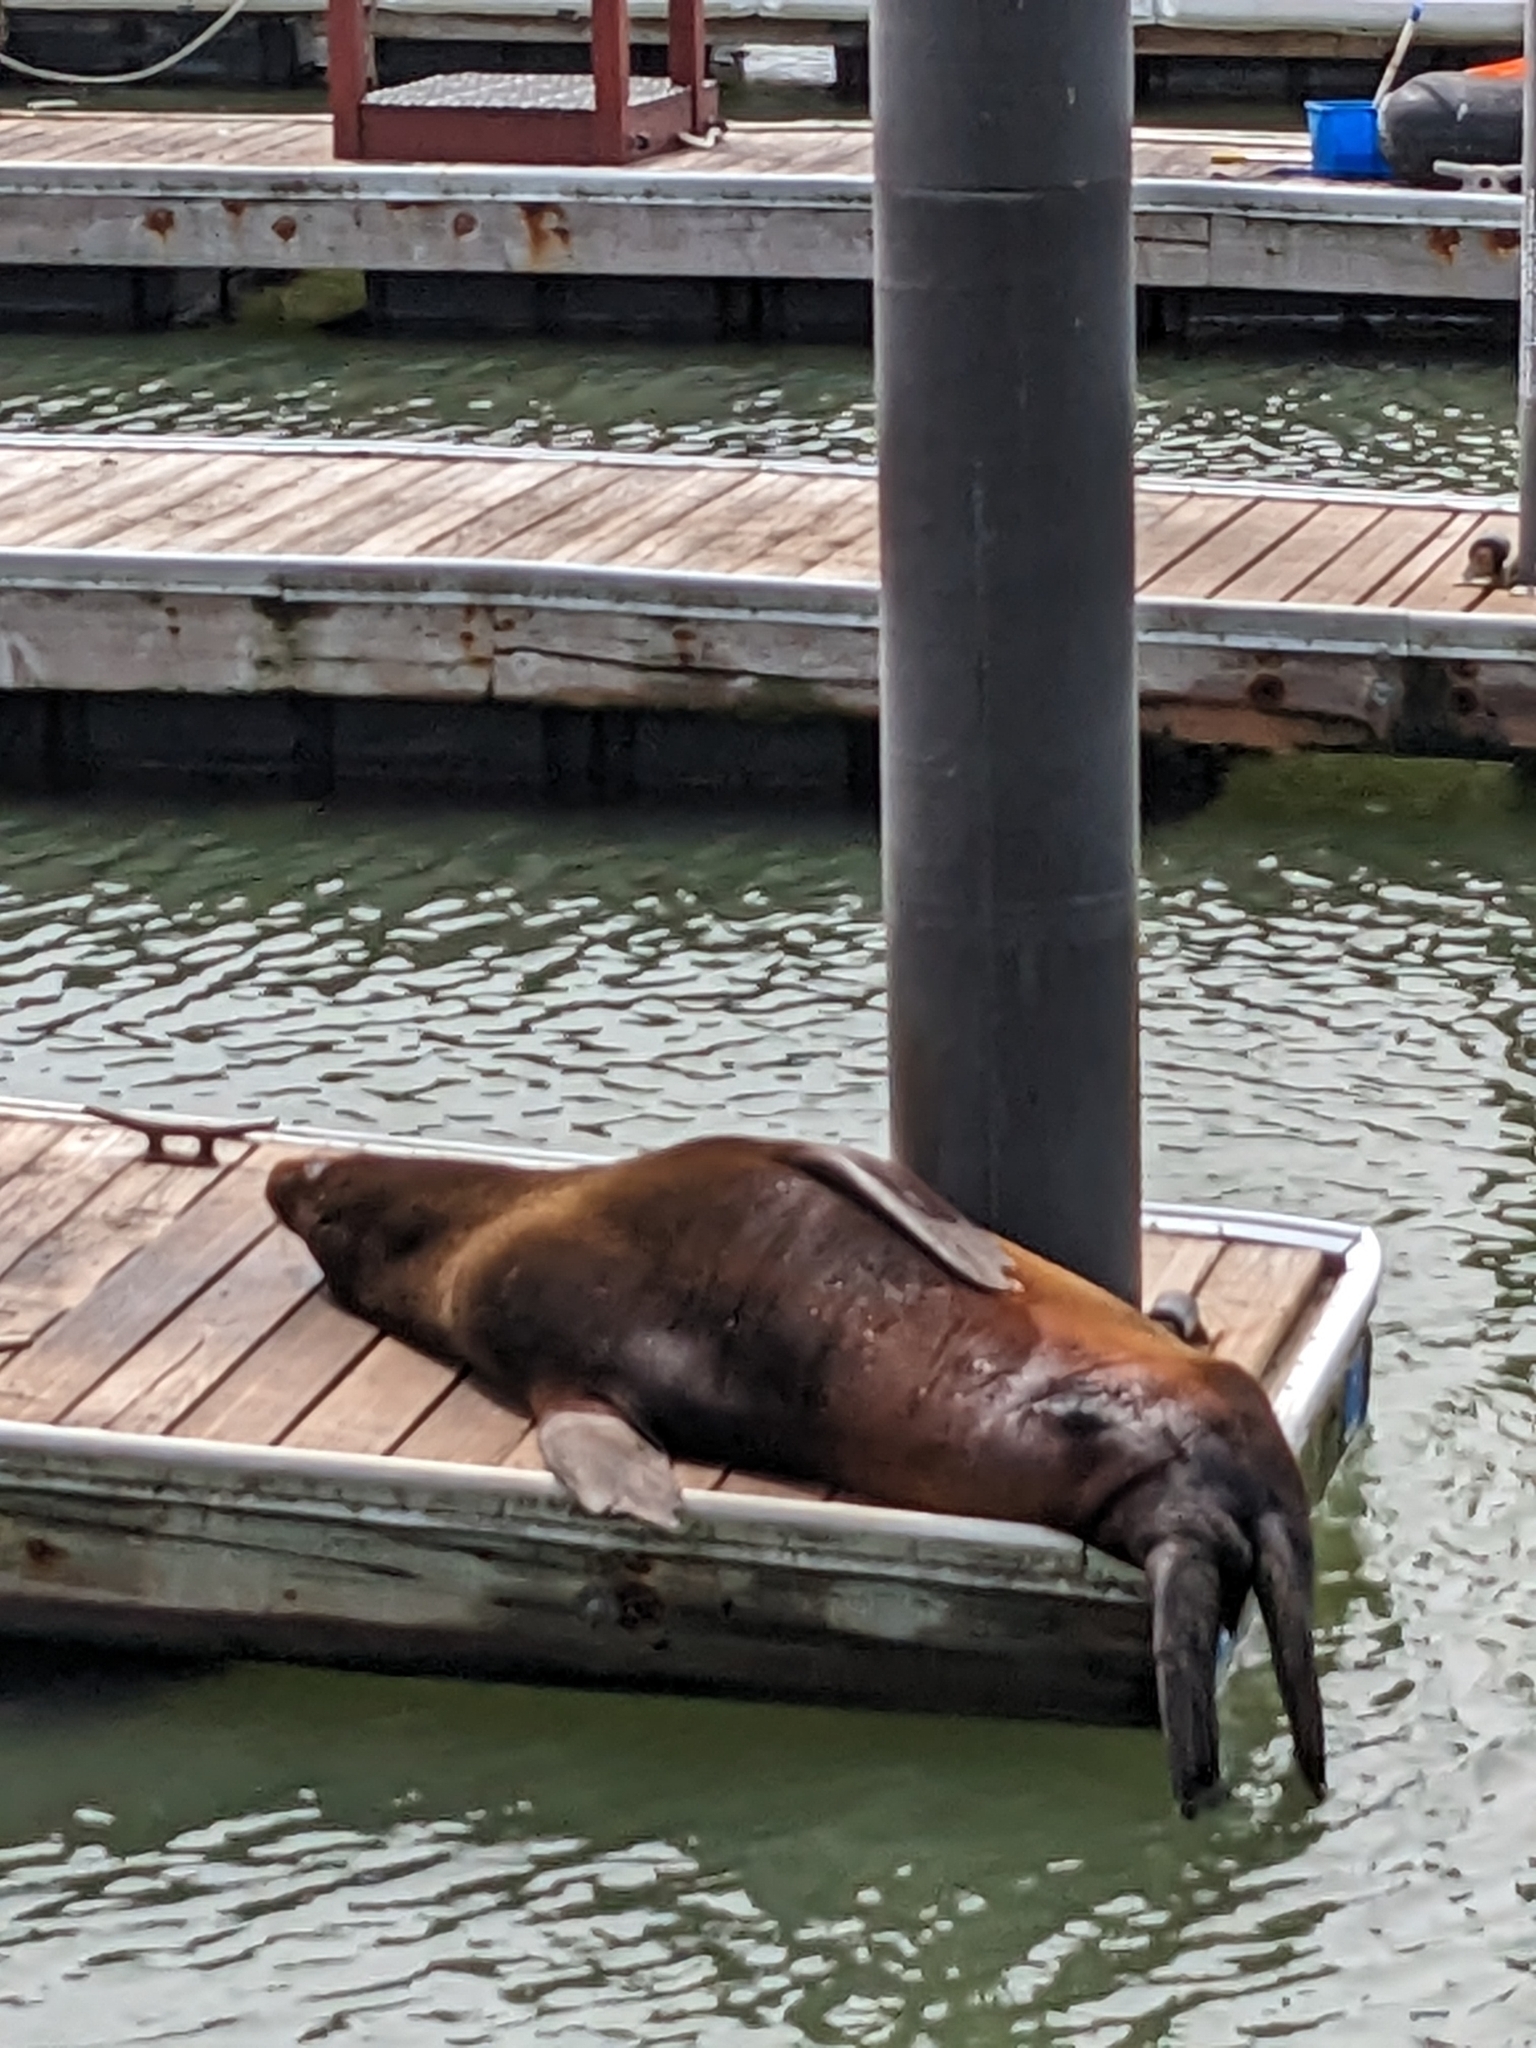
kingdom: Animalia
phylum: Chordata
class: Mammalia
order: Carnivora
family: Otariidae
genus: Zalophus
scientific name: Zalophus californianus
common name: California sea lion
